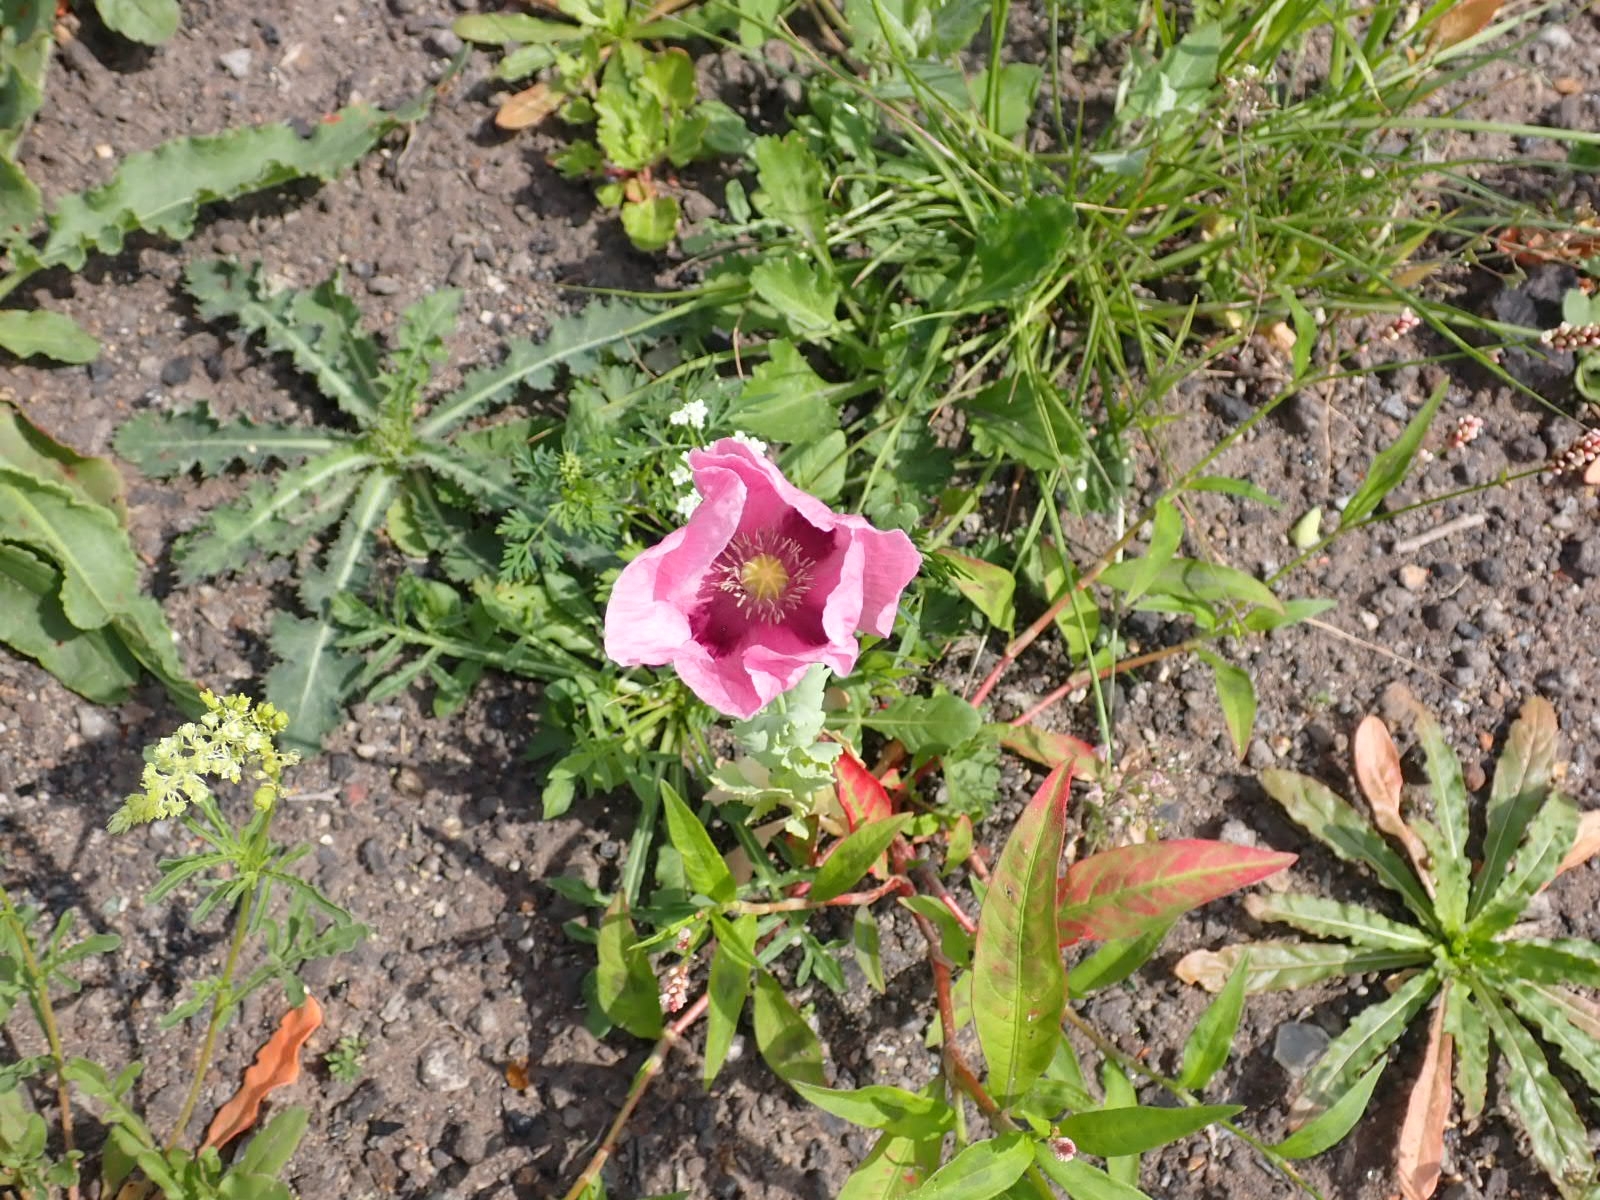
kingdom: Plantae
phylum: Tracheophyta
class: Magnoliopsida
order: Ranunculales
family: Papaveraceae
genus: Papaver
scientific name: Papaver somniferum
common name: Opium poppy
